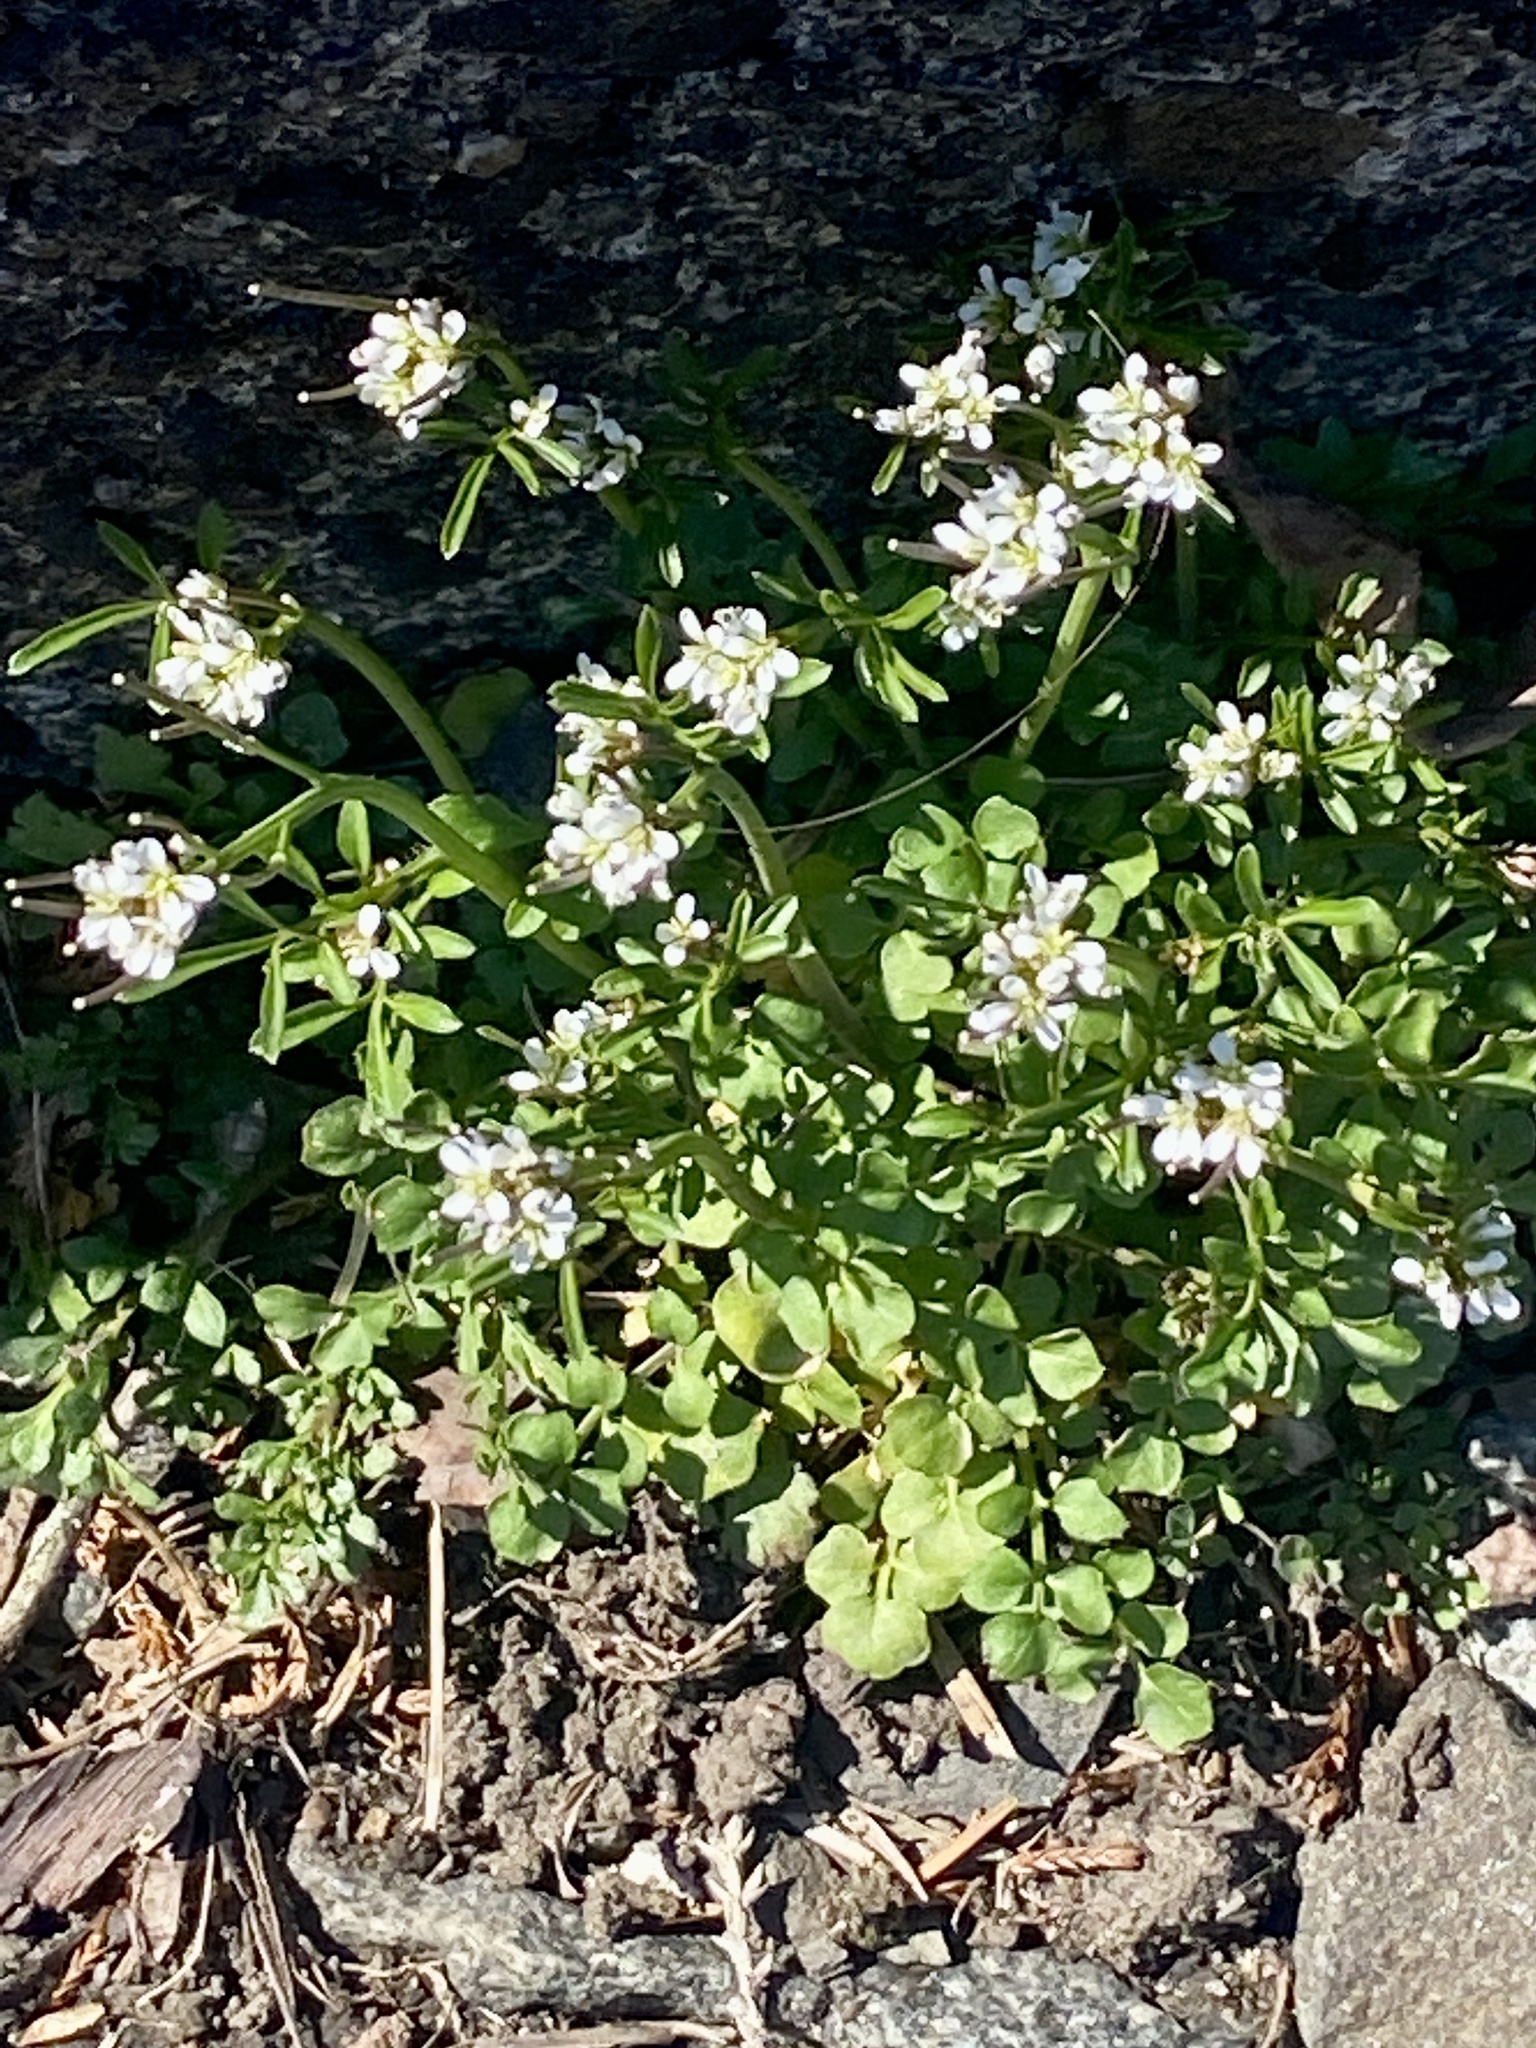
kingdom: Plantae
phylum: Tracheophyta
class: Magnoliopsida
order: Brassicales
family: Brassicaceae
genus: Cardamine
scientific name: Cardamine hirsuta
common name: Hairy bittercress
